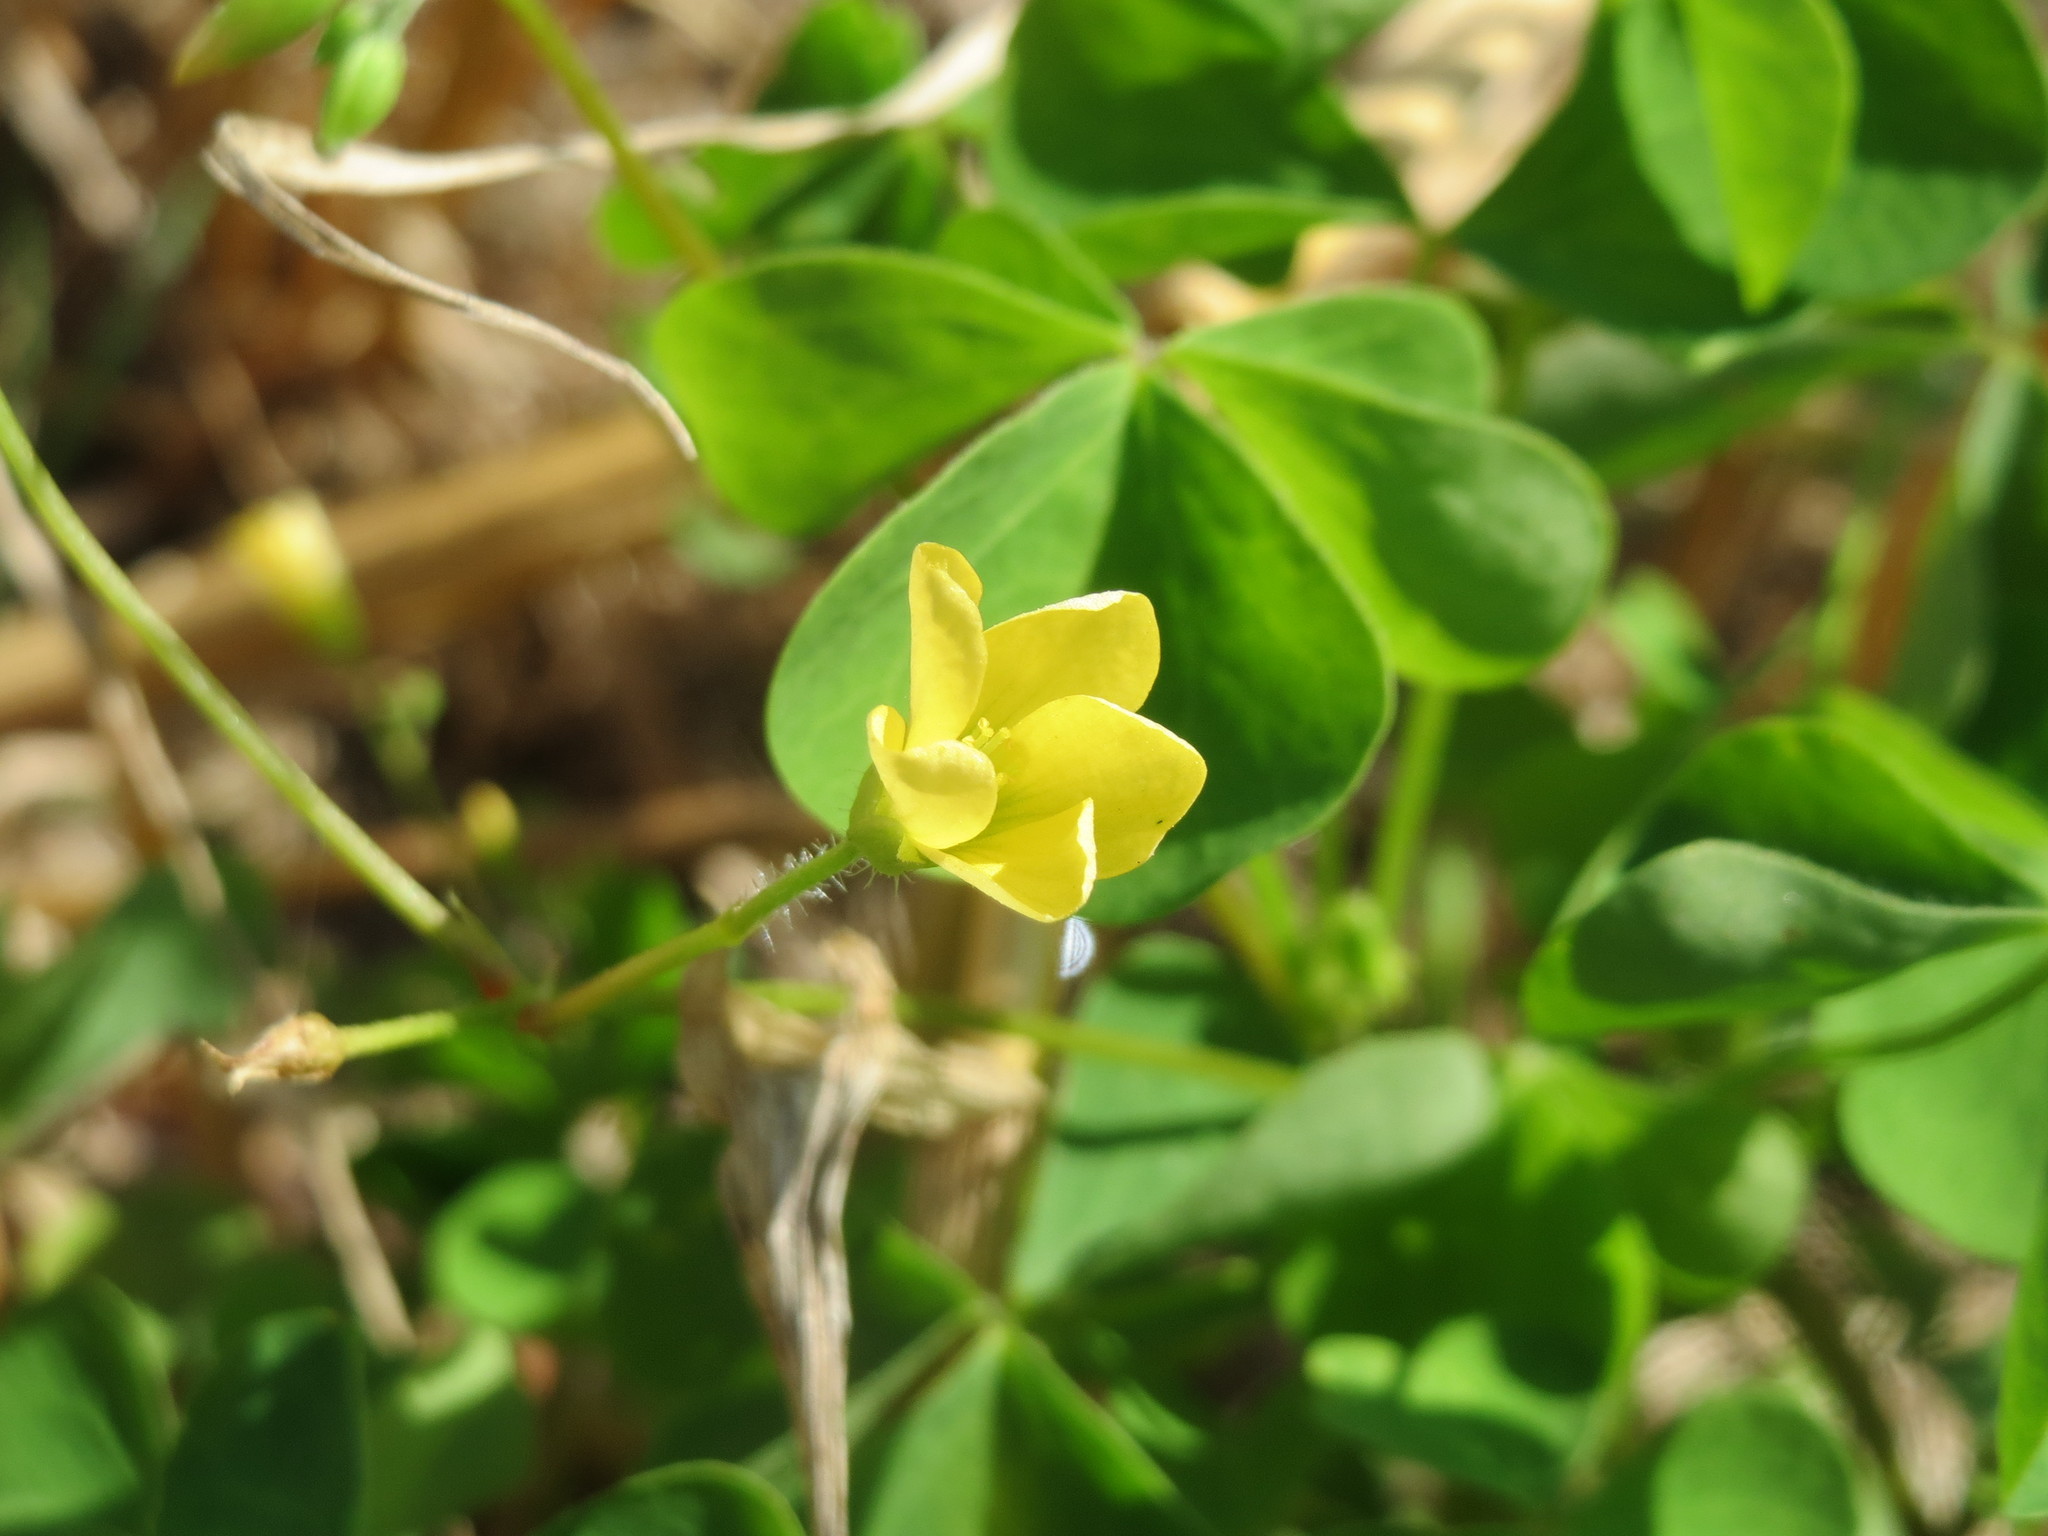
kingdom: Plantae
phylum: Tracheophyta
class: Magnoliopsida
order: Oxalidales
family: Oxalidaceae
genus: Oxalis
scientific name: Oxalis stricta
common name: Upright yellow-sorrel
